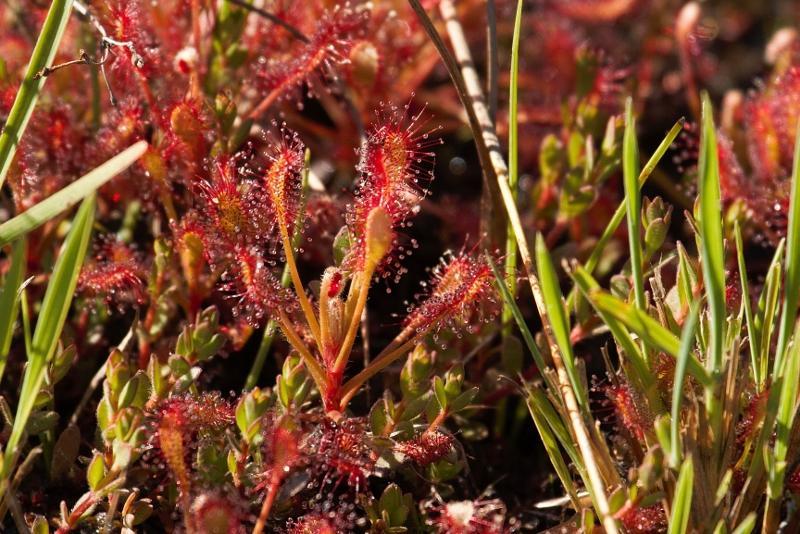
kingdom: Plantae
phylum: Tracheophyta
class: Magnoliopsida
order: Caryophyllales
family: Droseraceae
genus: Drosera
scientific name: Drosera madagascariensis
